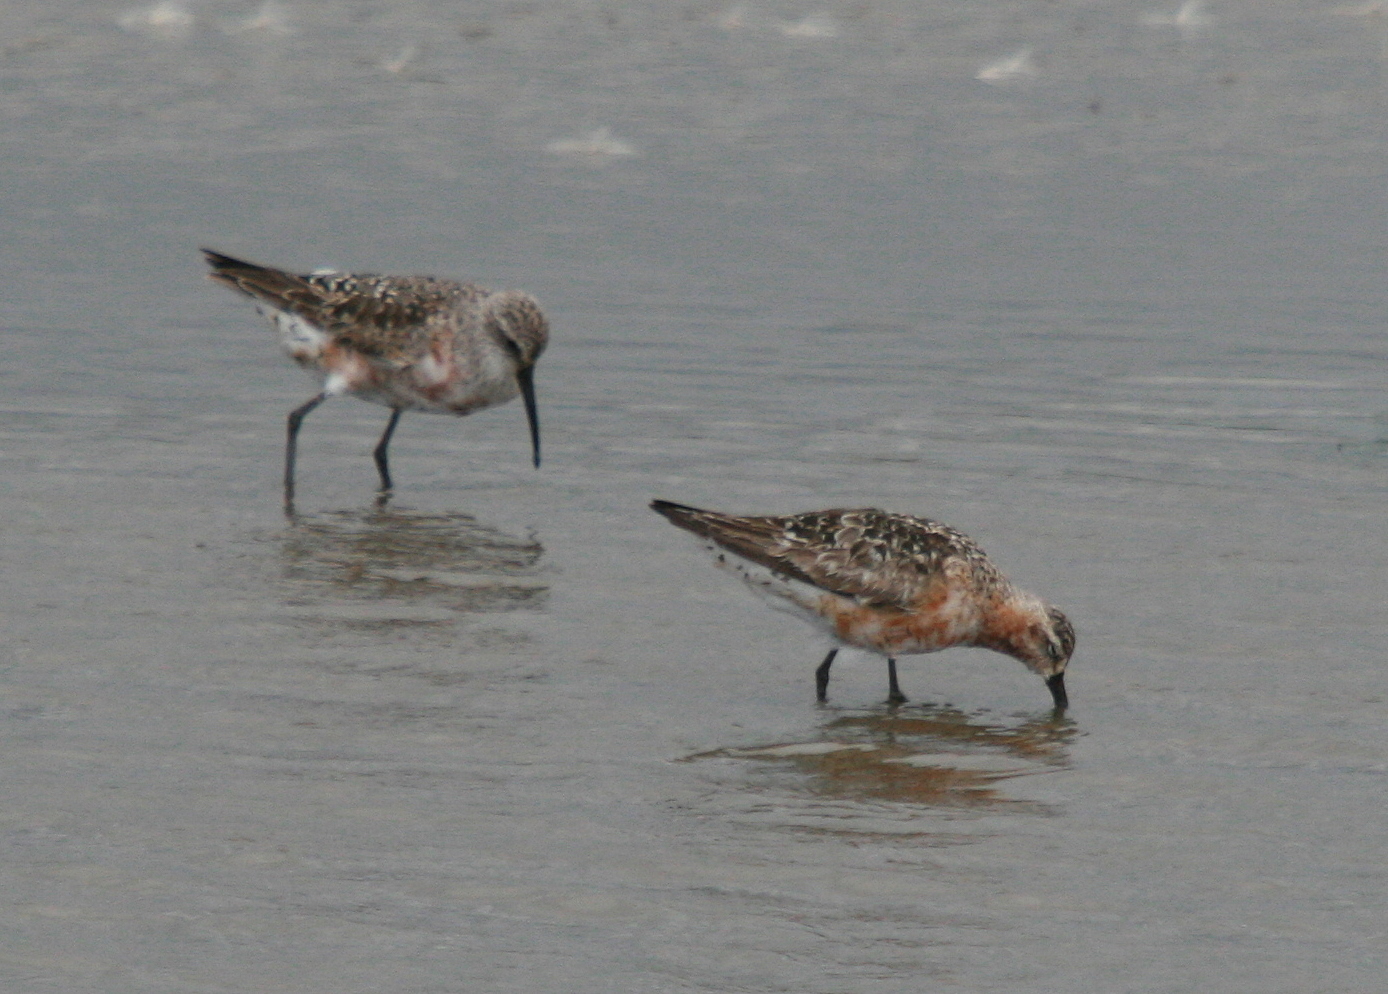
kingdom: Animalia
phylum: Chordata
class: Aves
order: Charadriiformes
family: Scolopacidae
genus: Calidris
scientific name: Calidris ferruginea
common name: Curlew sandpiper
